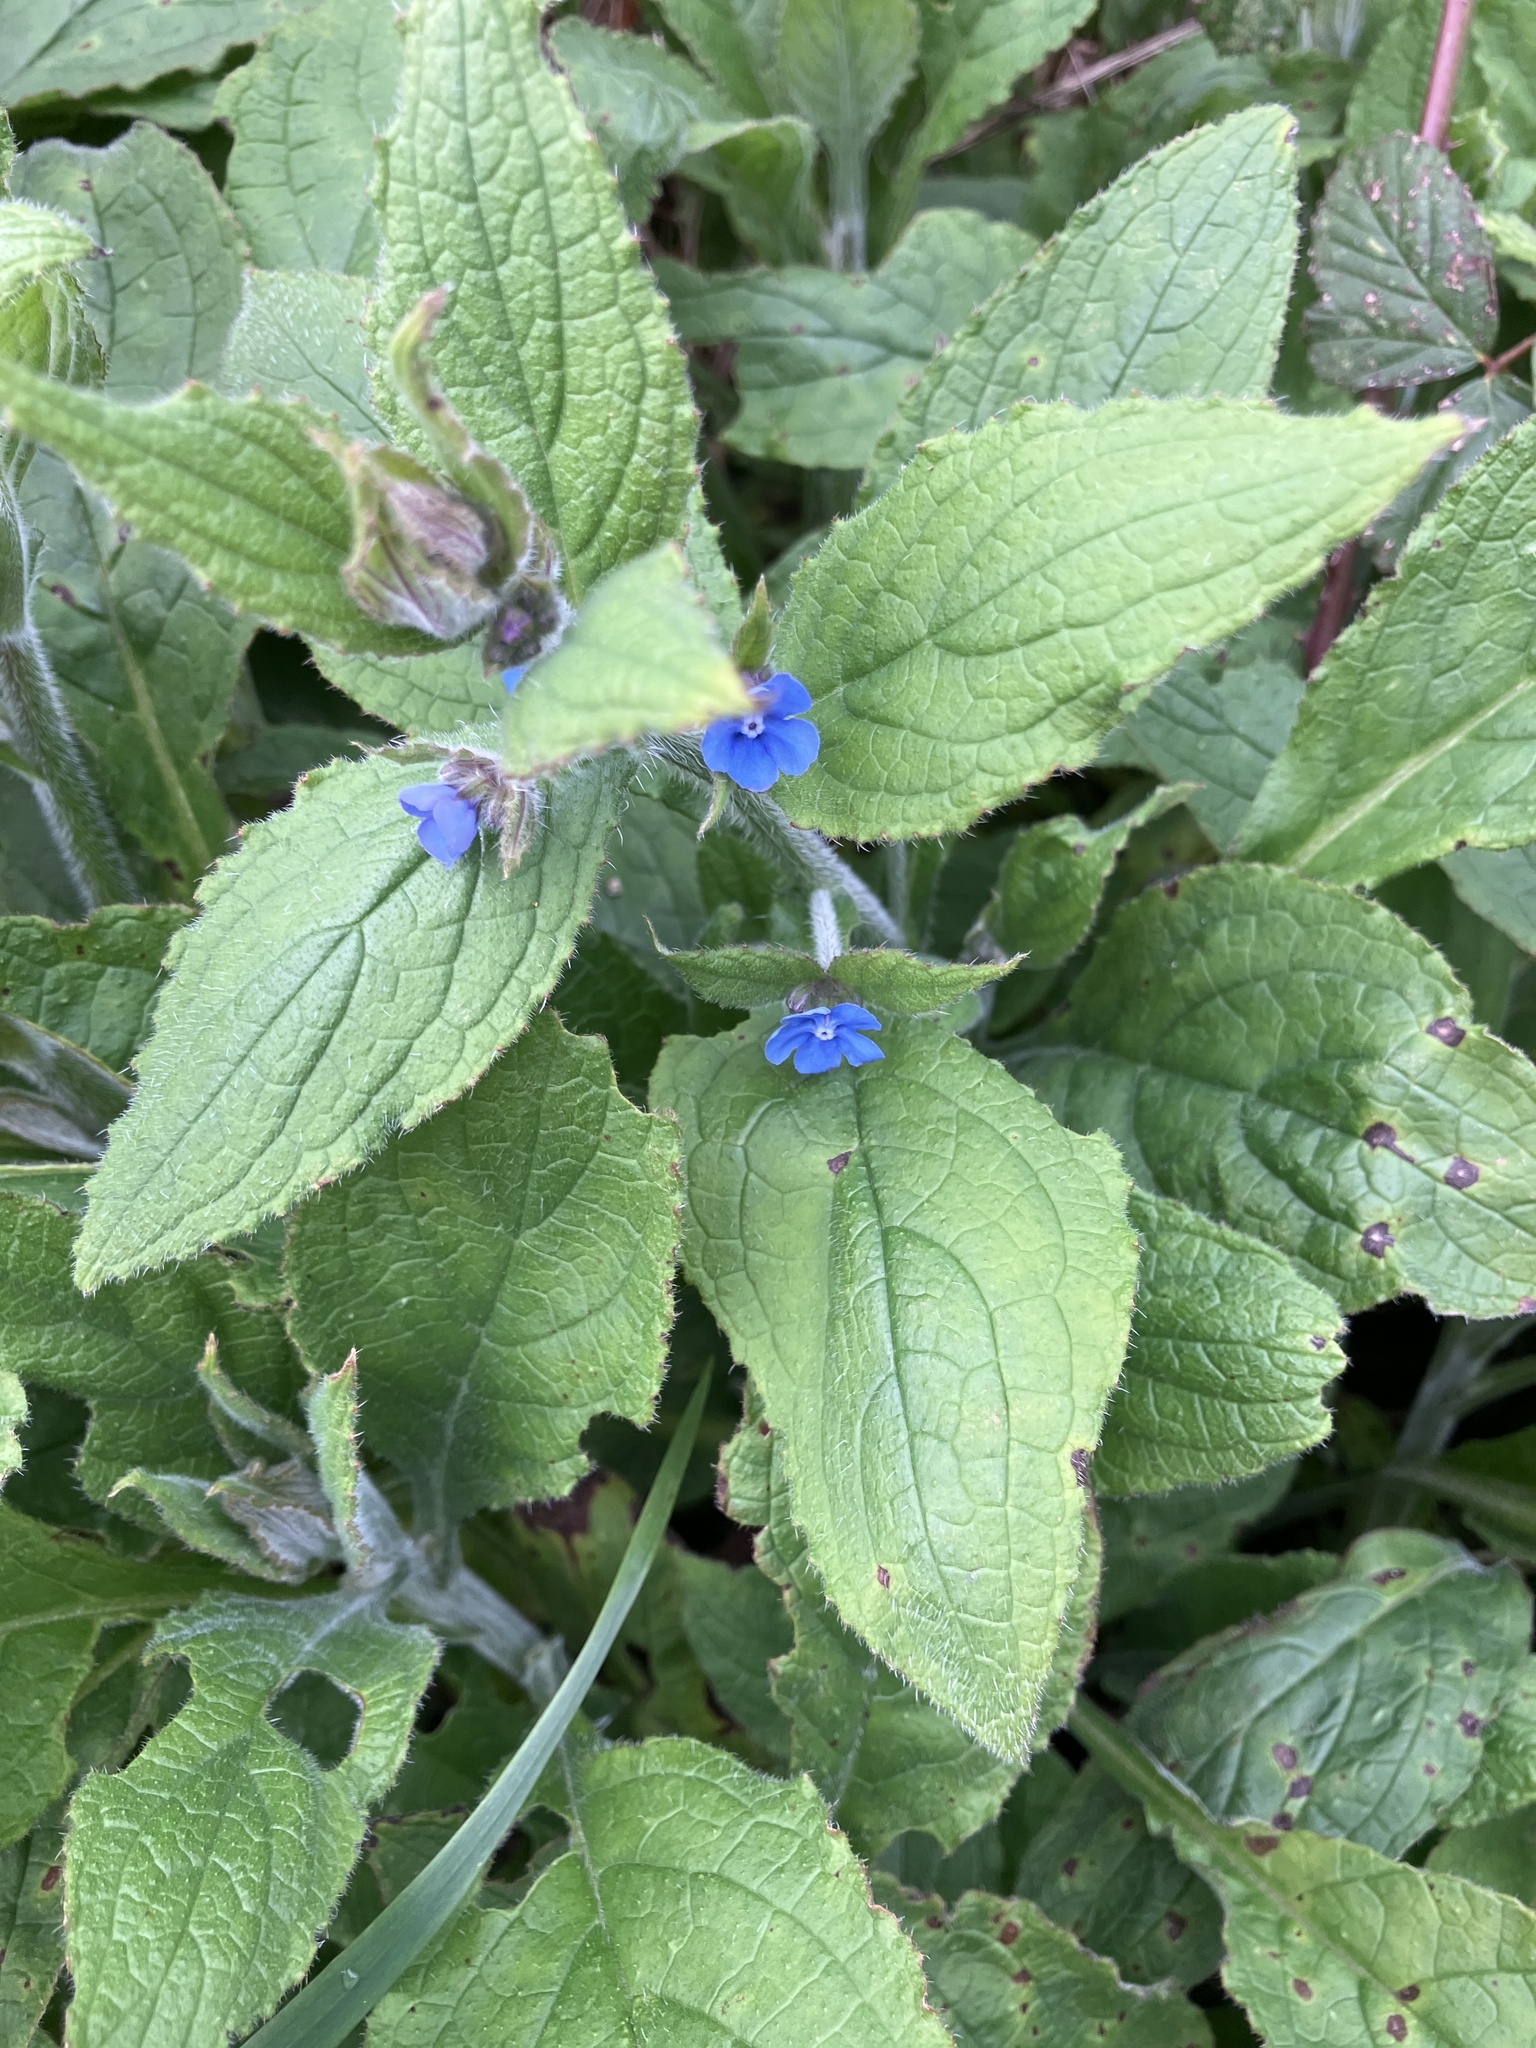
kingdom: Plantae
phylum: Tracheophyta
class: Magnoliopsida
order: Boraginales
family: Boraginaceae
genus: Pentaglottis
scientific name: Pentaglottis sempervirens
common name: Green alkanet
